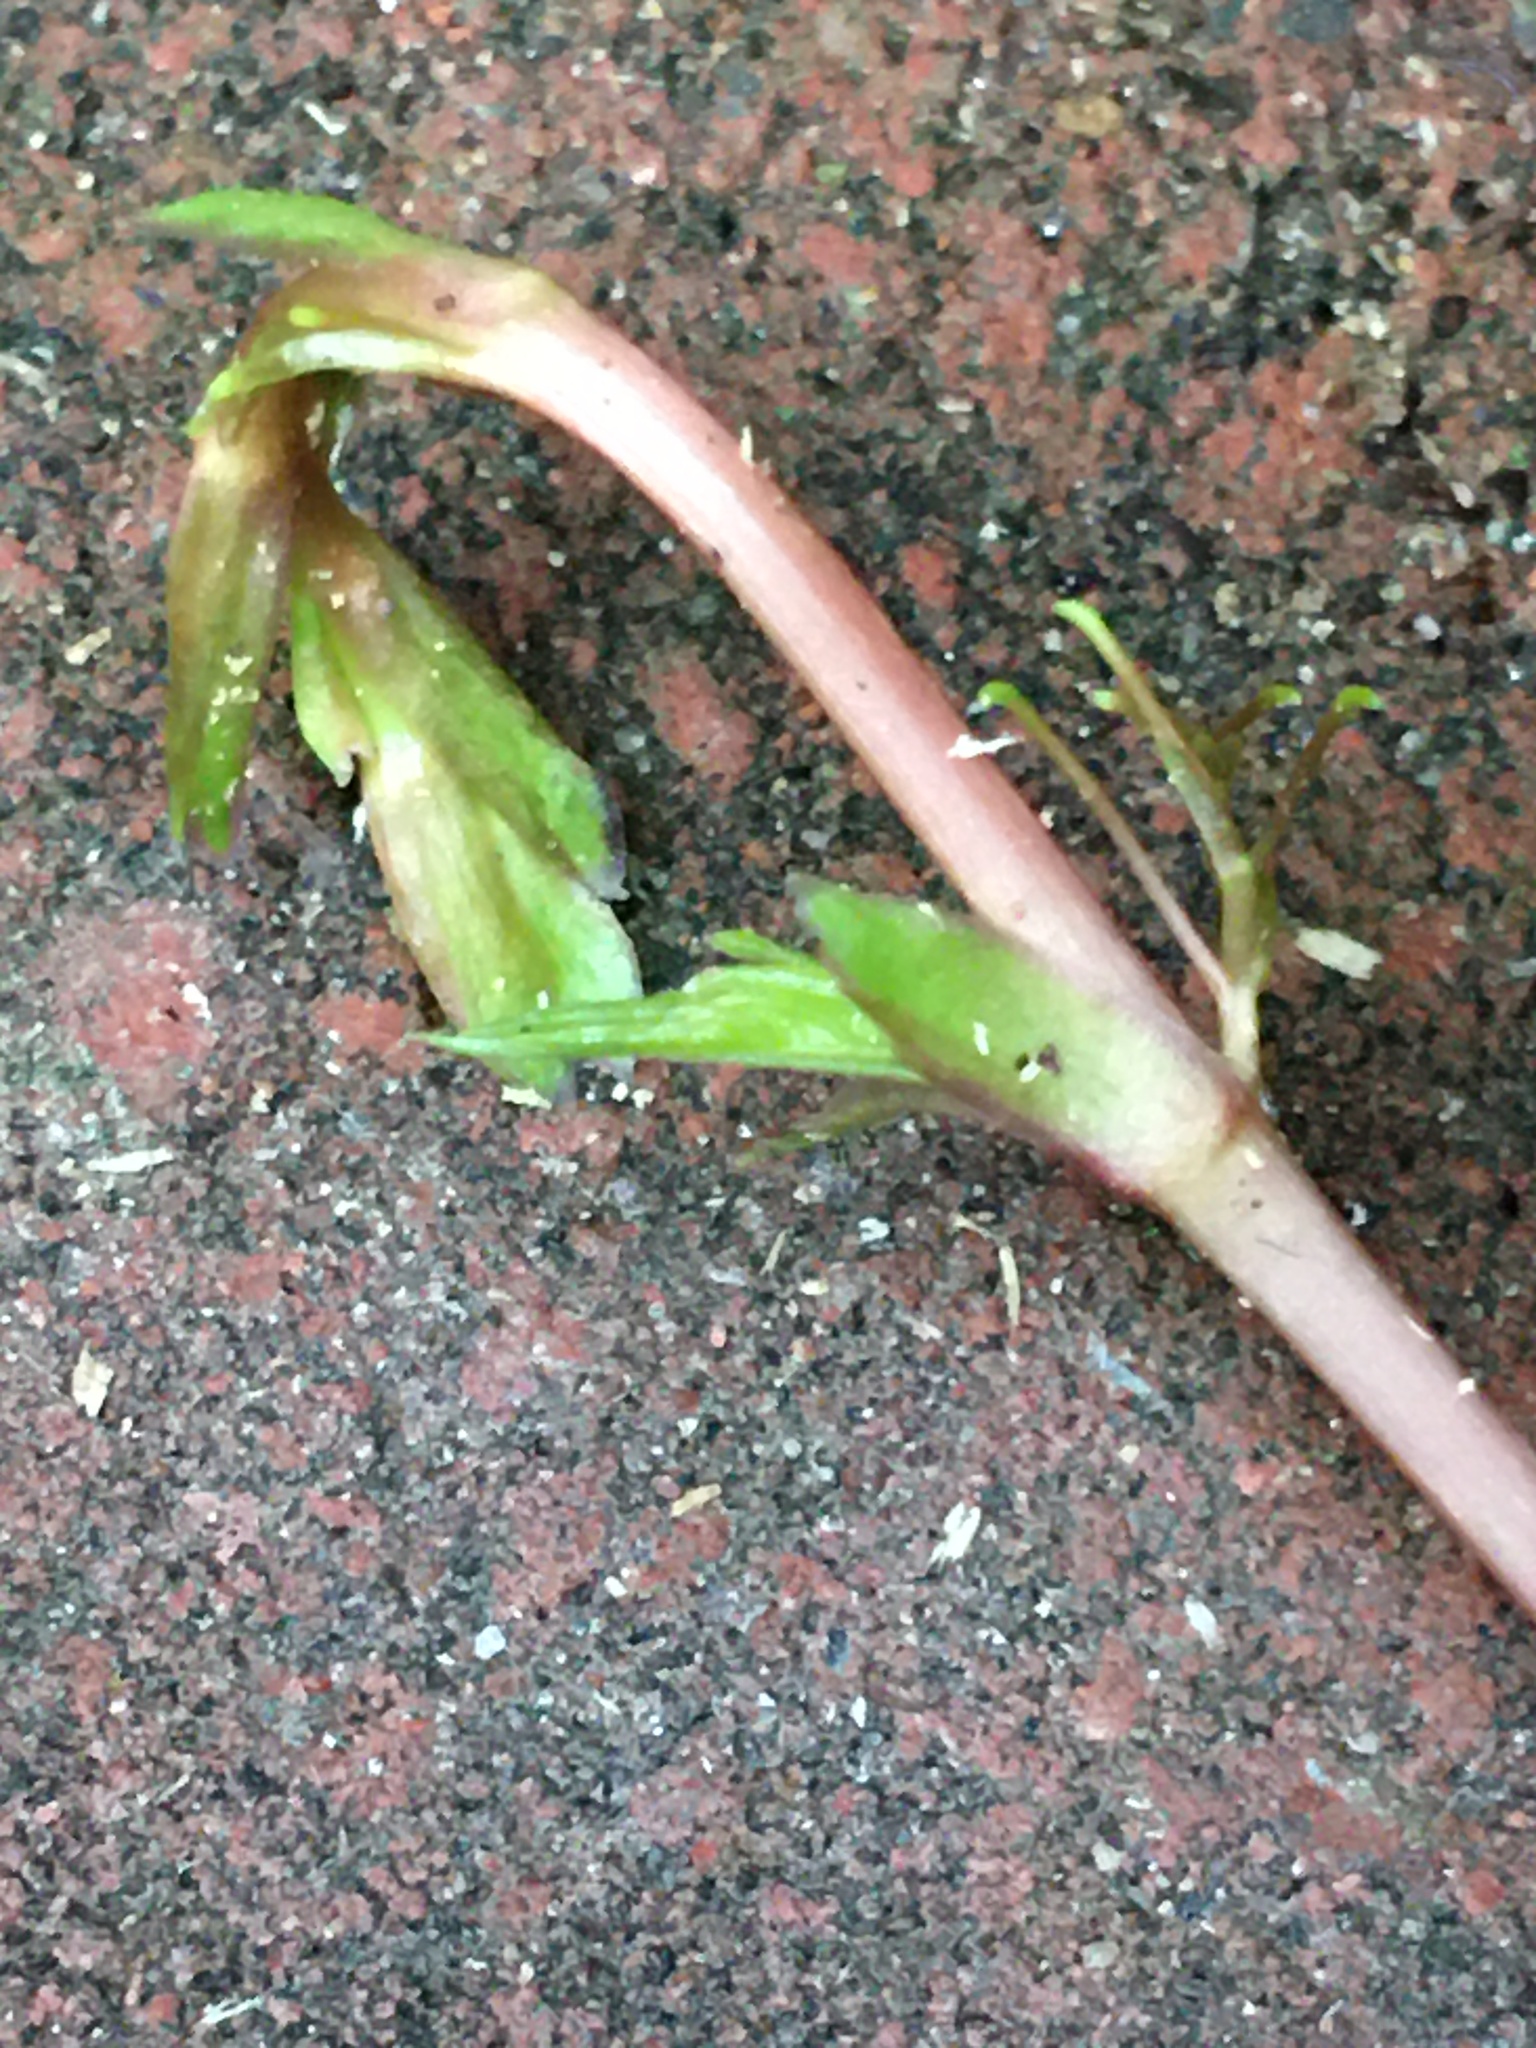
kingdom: Plantae
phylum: Tracheophyta
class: Magnoliopsida
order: Vitales
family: Vitaceae
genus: Parthenocissus
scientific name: Parthenocissus quinquefolia
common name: Virginia-creeper
